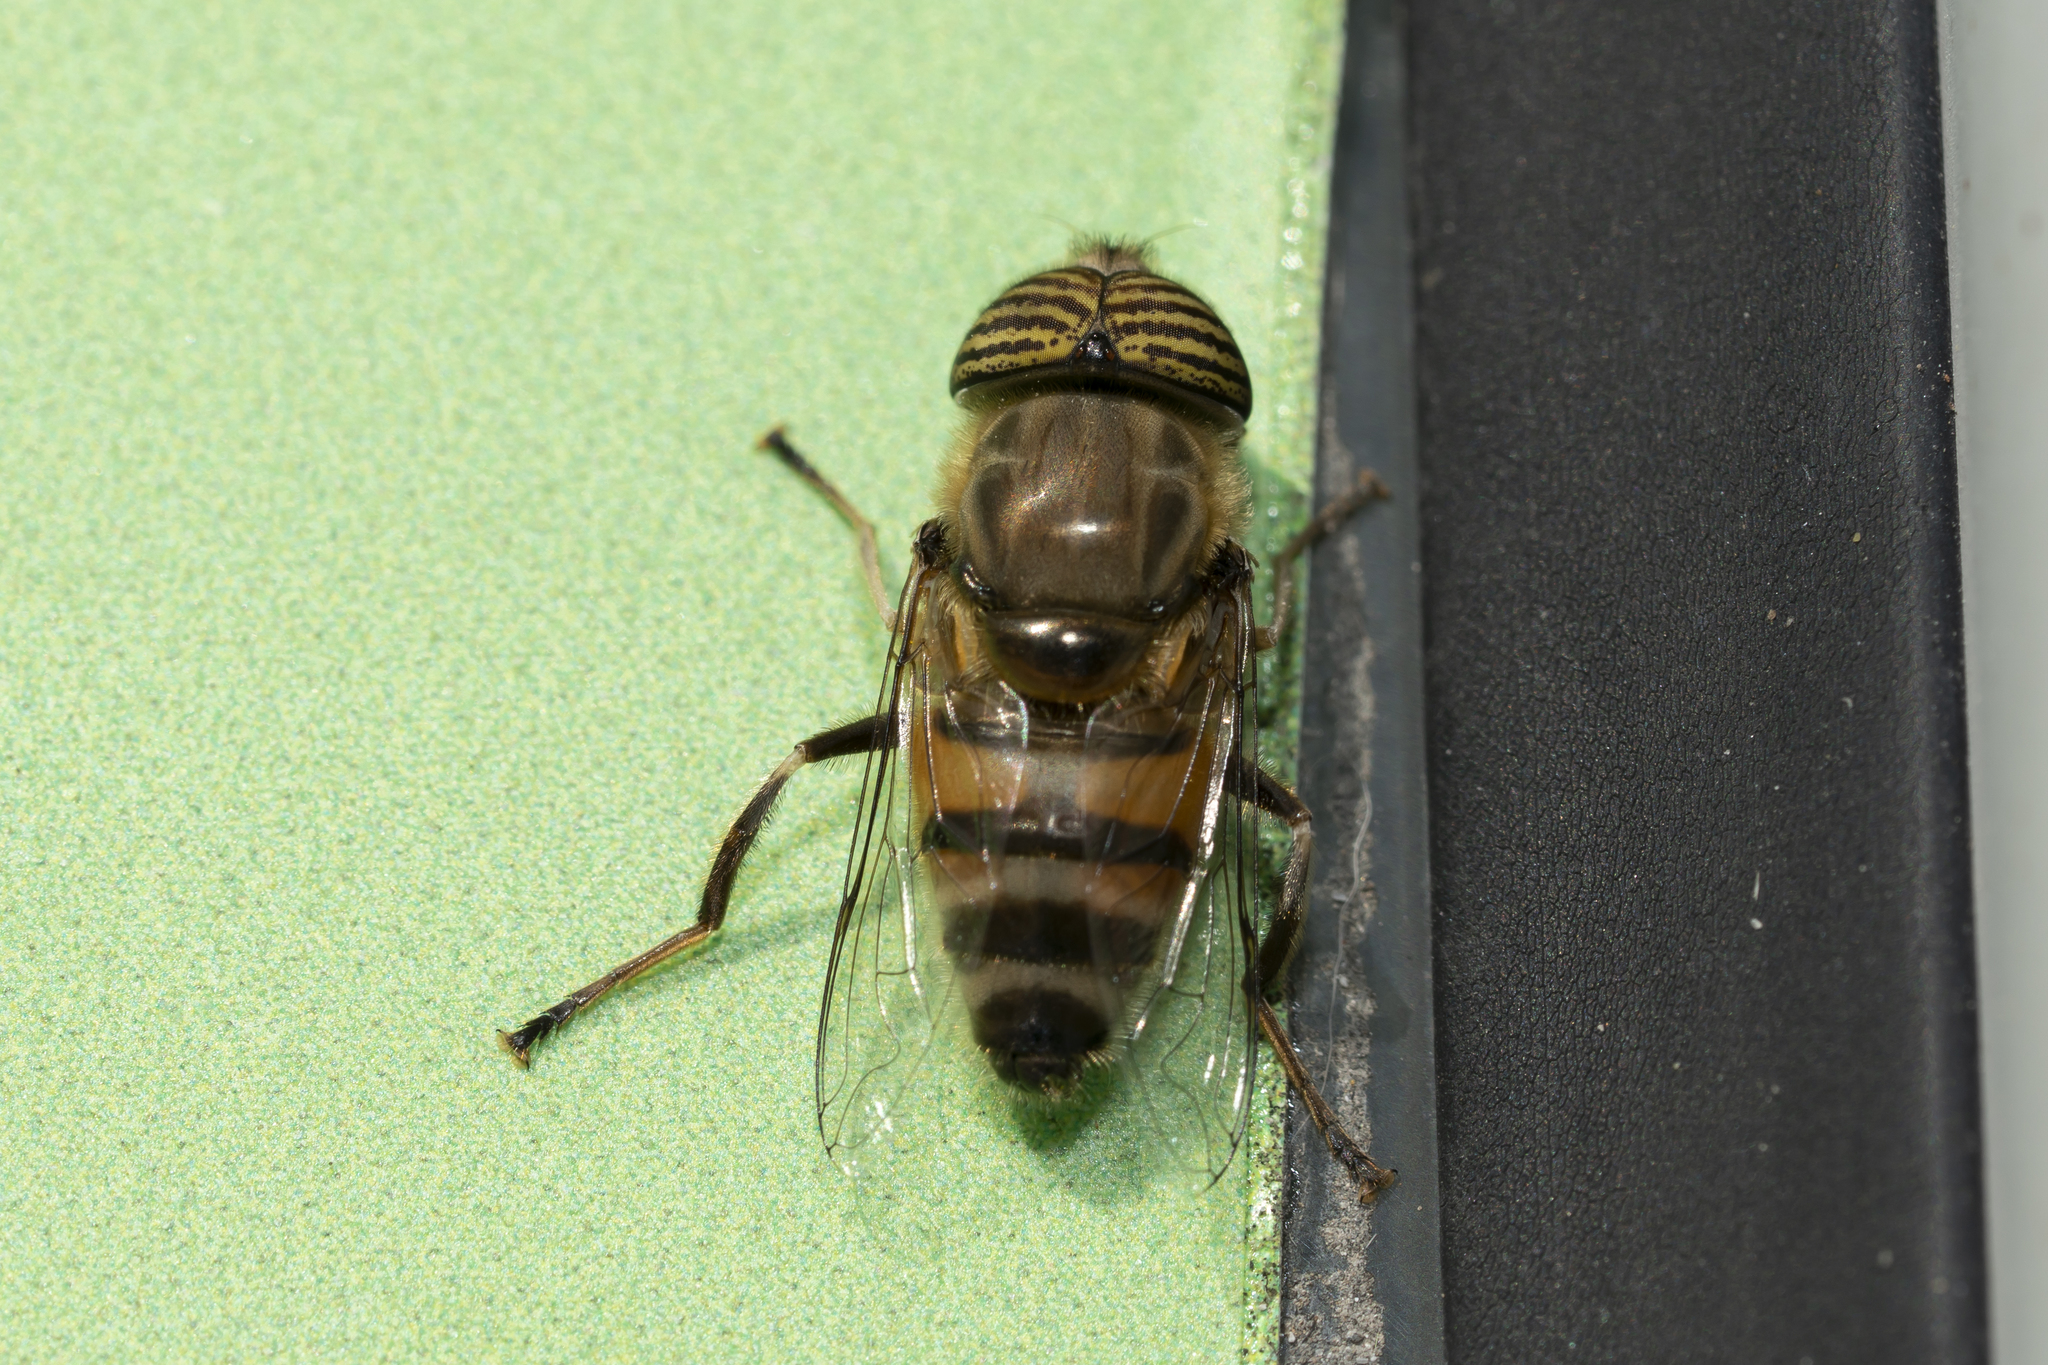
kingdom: Animalia
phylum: Arthropoda
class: Insecta
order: Diptera
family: Syrphidae
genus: Eristalinus
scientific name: Eristalinus taeniops
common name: Syrphid fly
